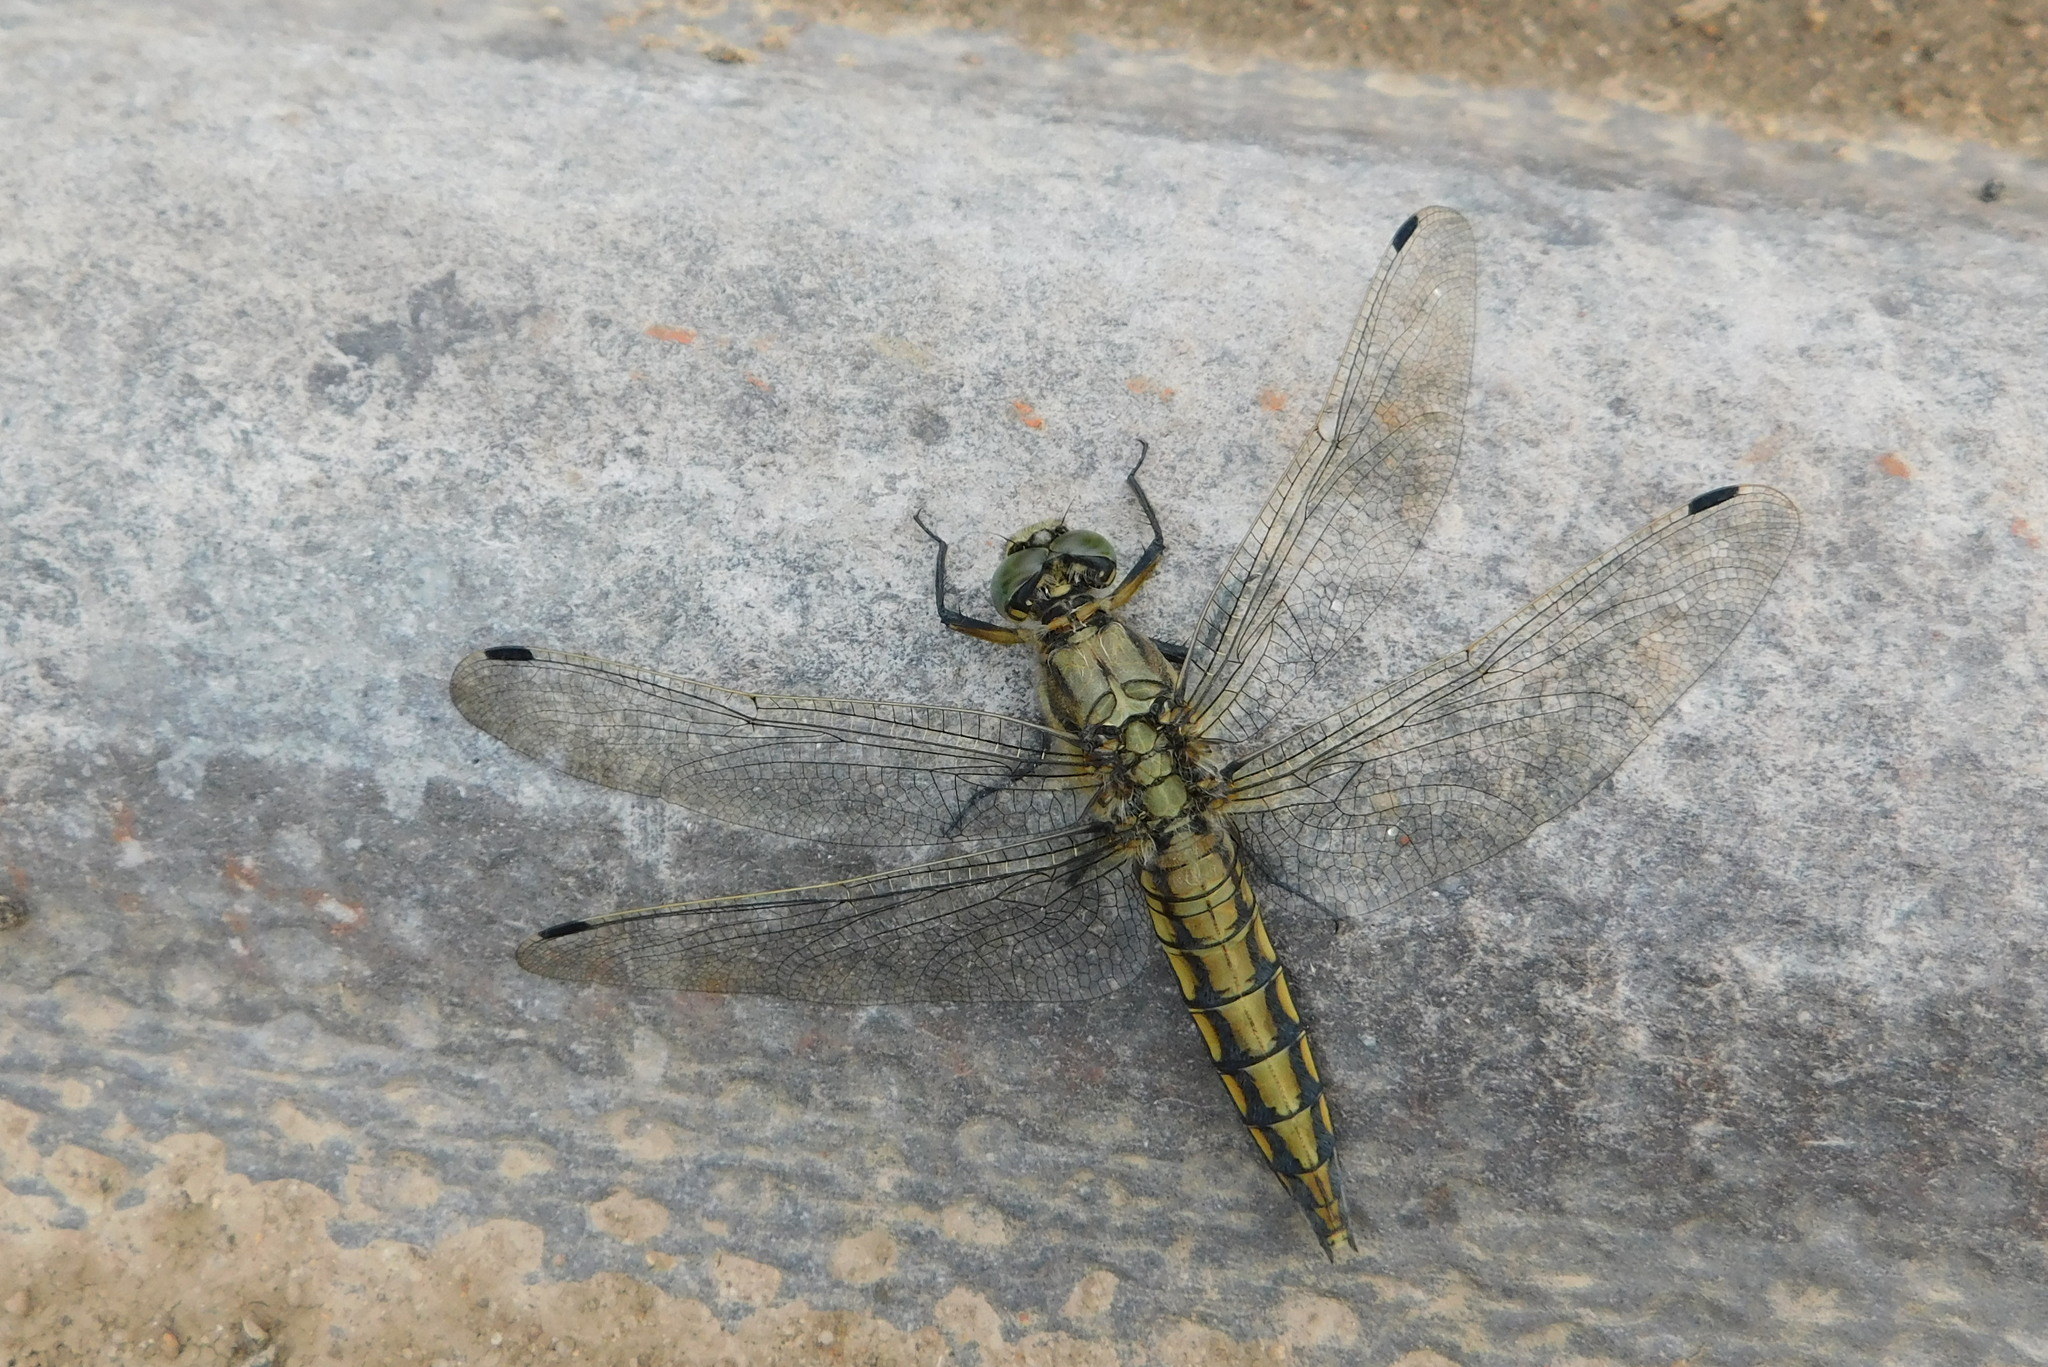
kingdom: Animalia
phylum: Arthropoda
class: Insecta
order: Odonata
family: Libellulidae
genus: Orthetrum
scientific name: Orthetrum cancellatum
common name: Black-tailed skimmer
